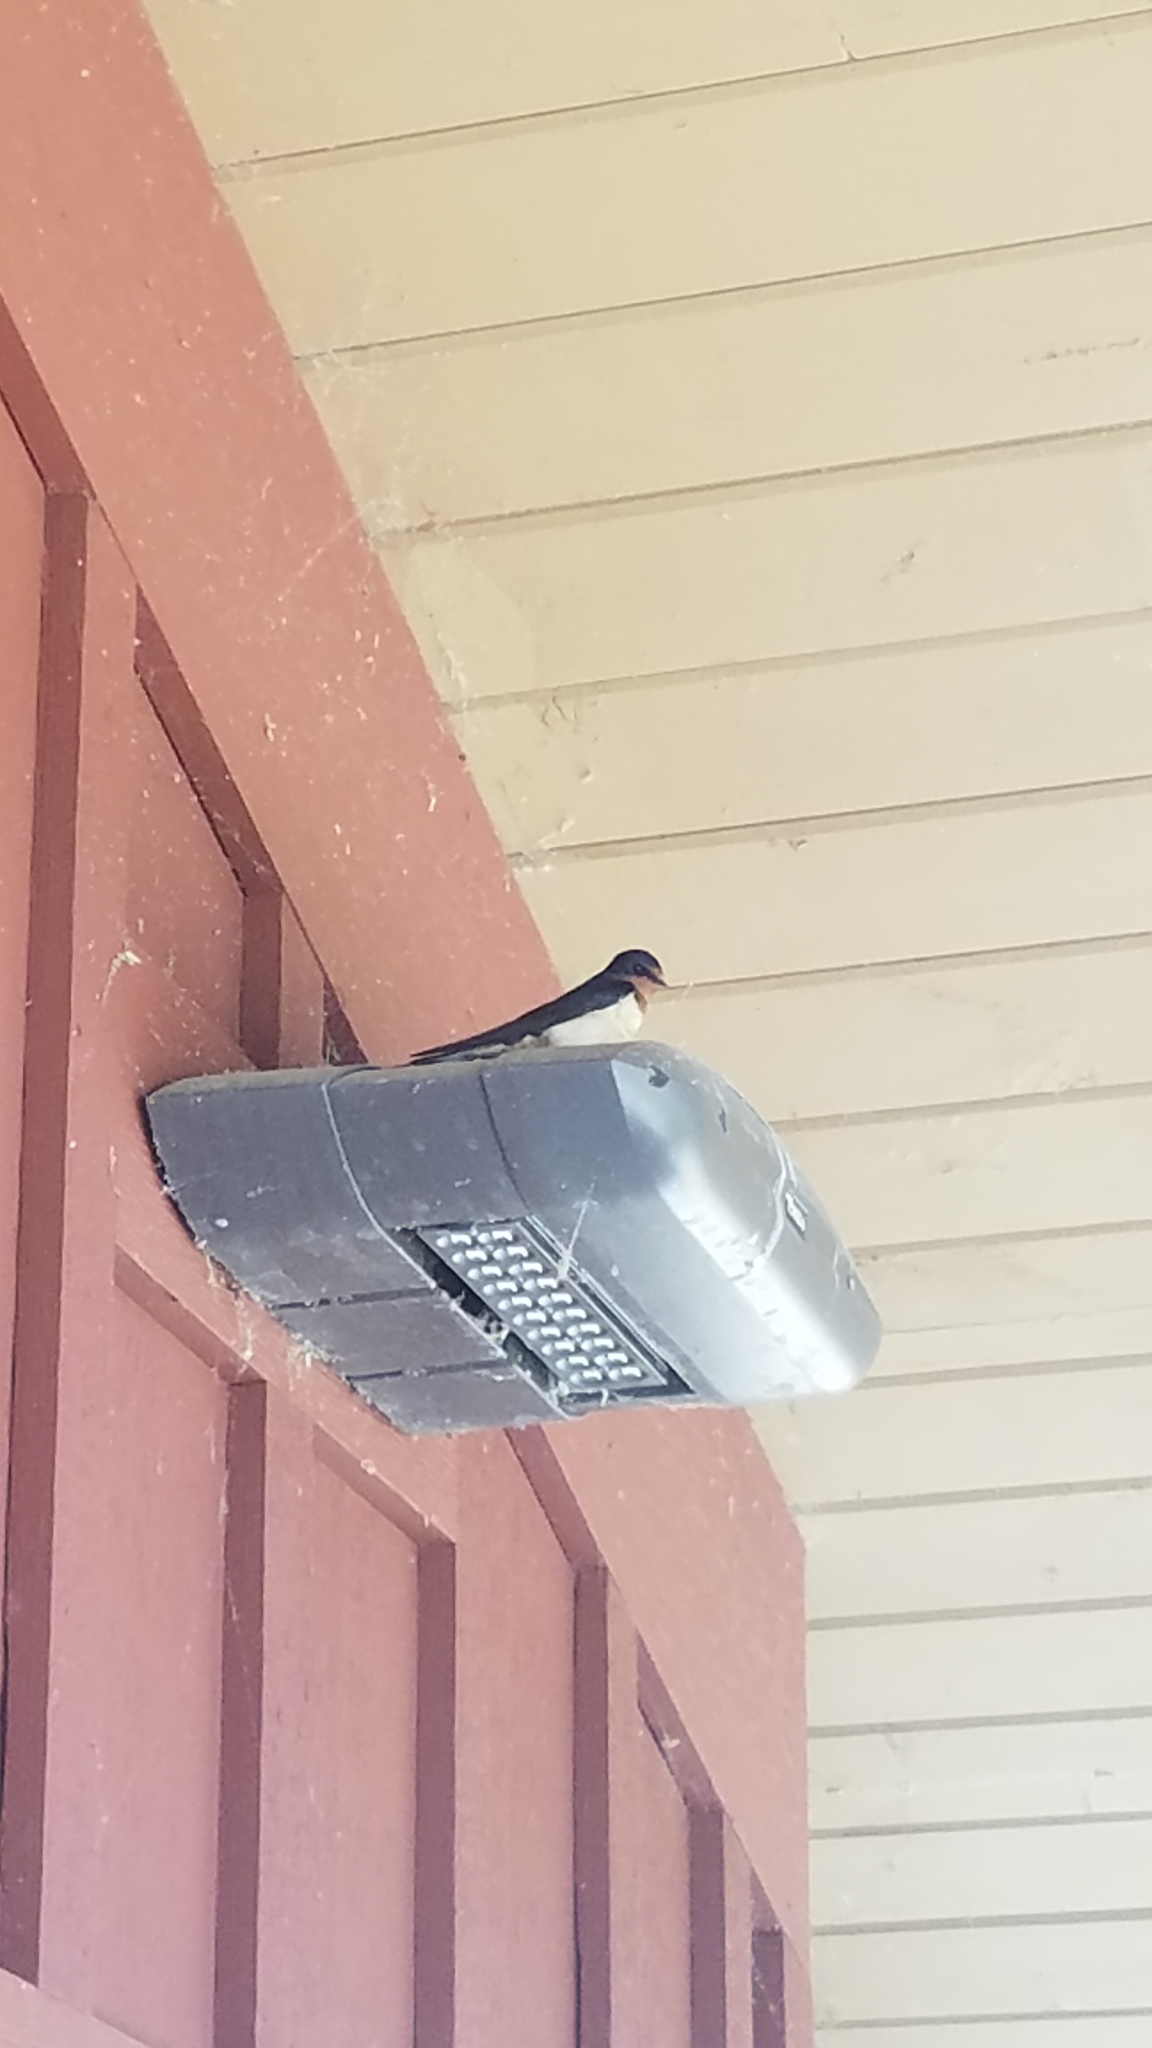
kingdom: Animalia
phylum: Chordata
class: Aves
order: Passeriformes
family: Hirundinidae
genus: Hirundo
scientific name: Hirundo rustica
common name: Barn swallow
